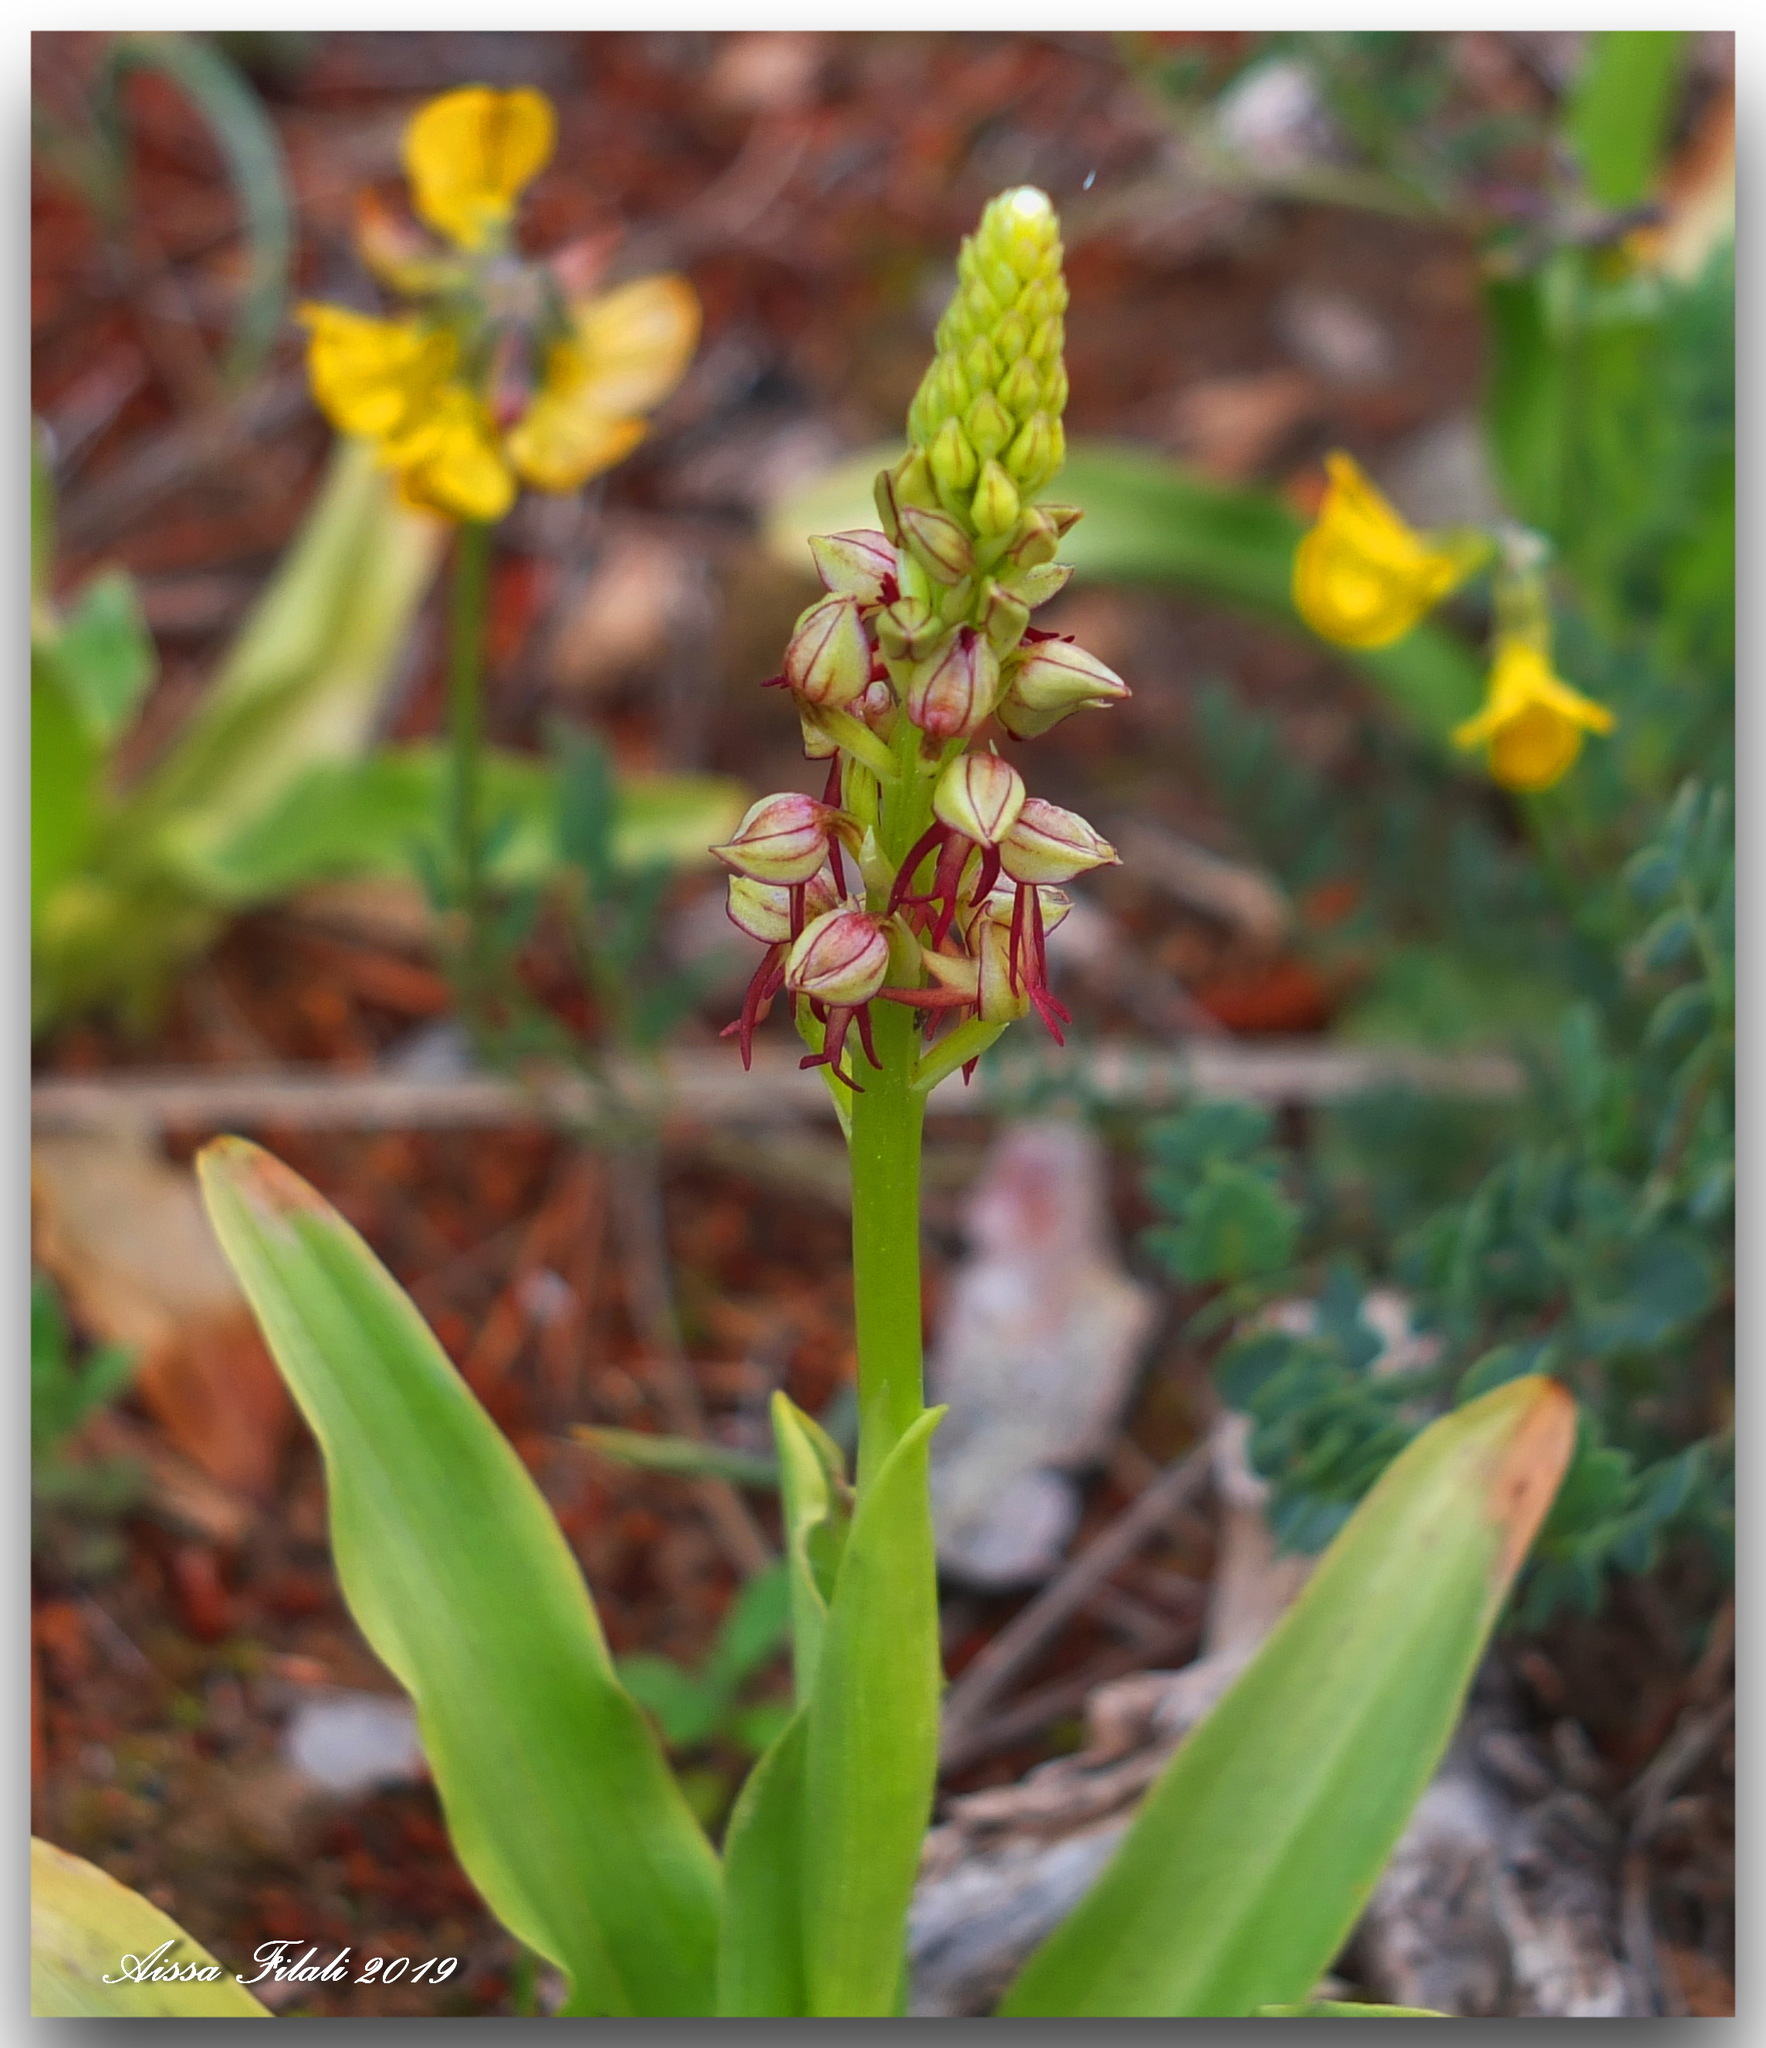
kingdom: Plantae
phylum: Tracheophyta
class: Liliopsida
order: Asparagales
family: Orchidaceae
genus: Orchis
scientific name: Orchis anthropophora
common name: Man orchid
